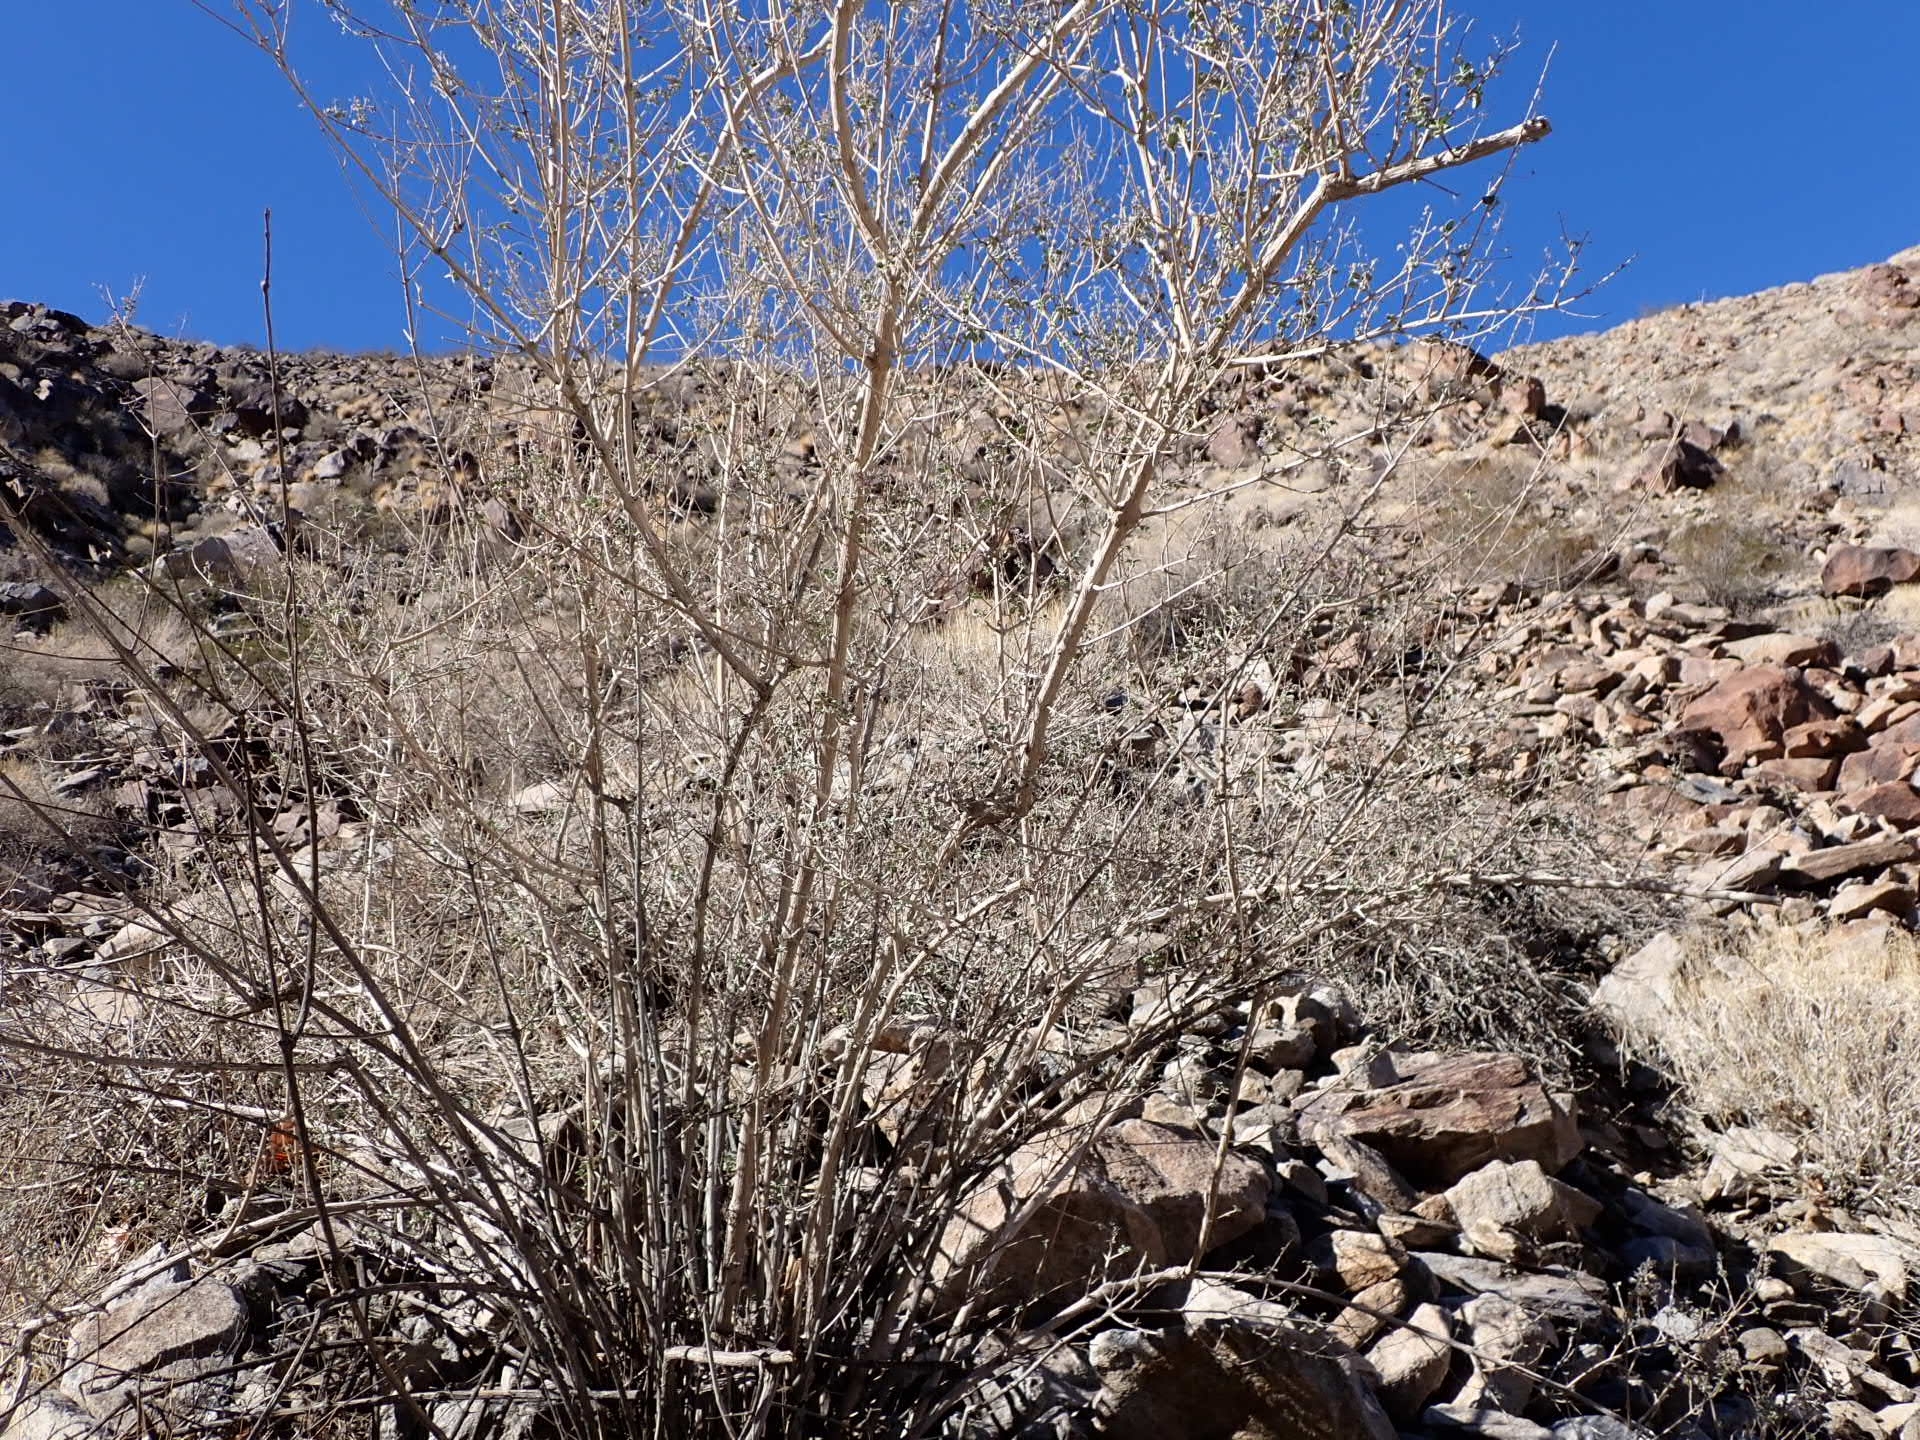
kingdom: Plantae
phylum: Tracheophyta
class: Magnoliopsida
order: Lamiales
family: Lamiaceae
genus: Condea
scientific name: Condea emoryi
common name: Chia
